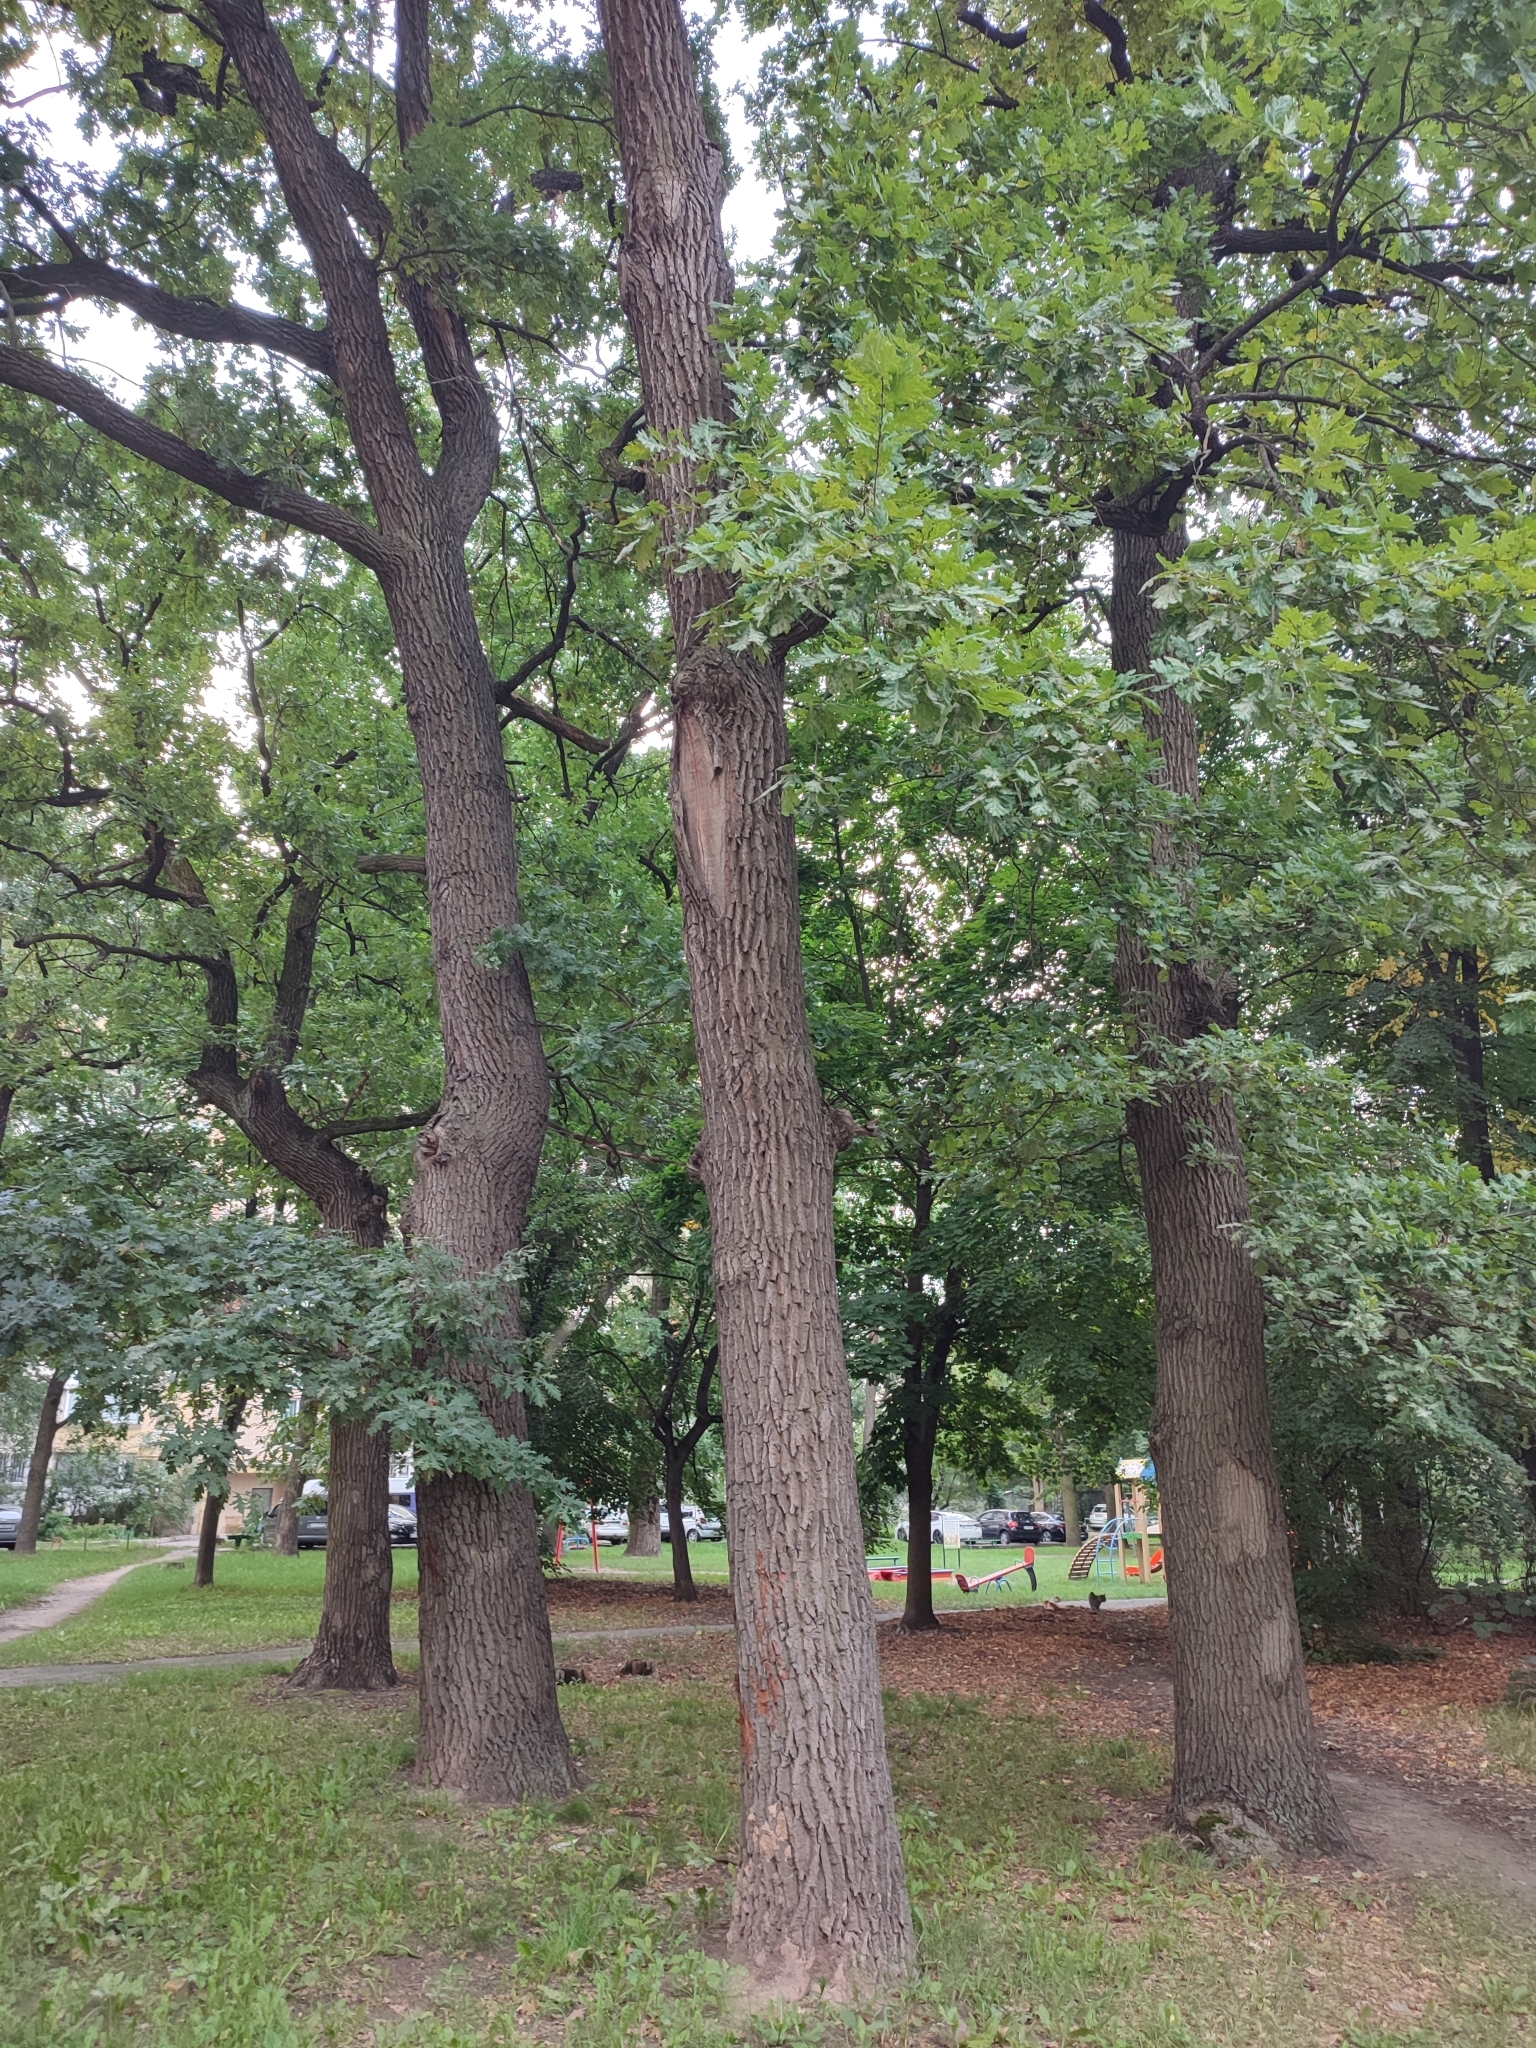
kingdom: Plantae
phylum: Tracheophyta
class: Magnoliopsida
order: Fagales
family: Fagaceae
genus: Quercus
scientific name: Quercus robur
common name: Pedunculate oak
